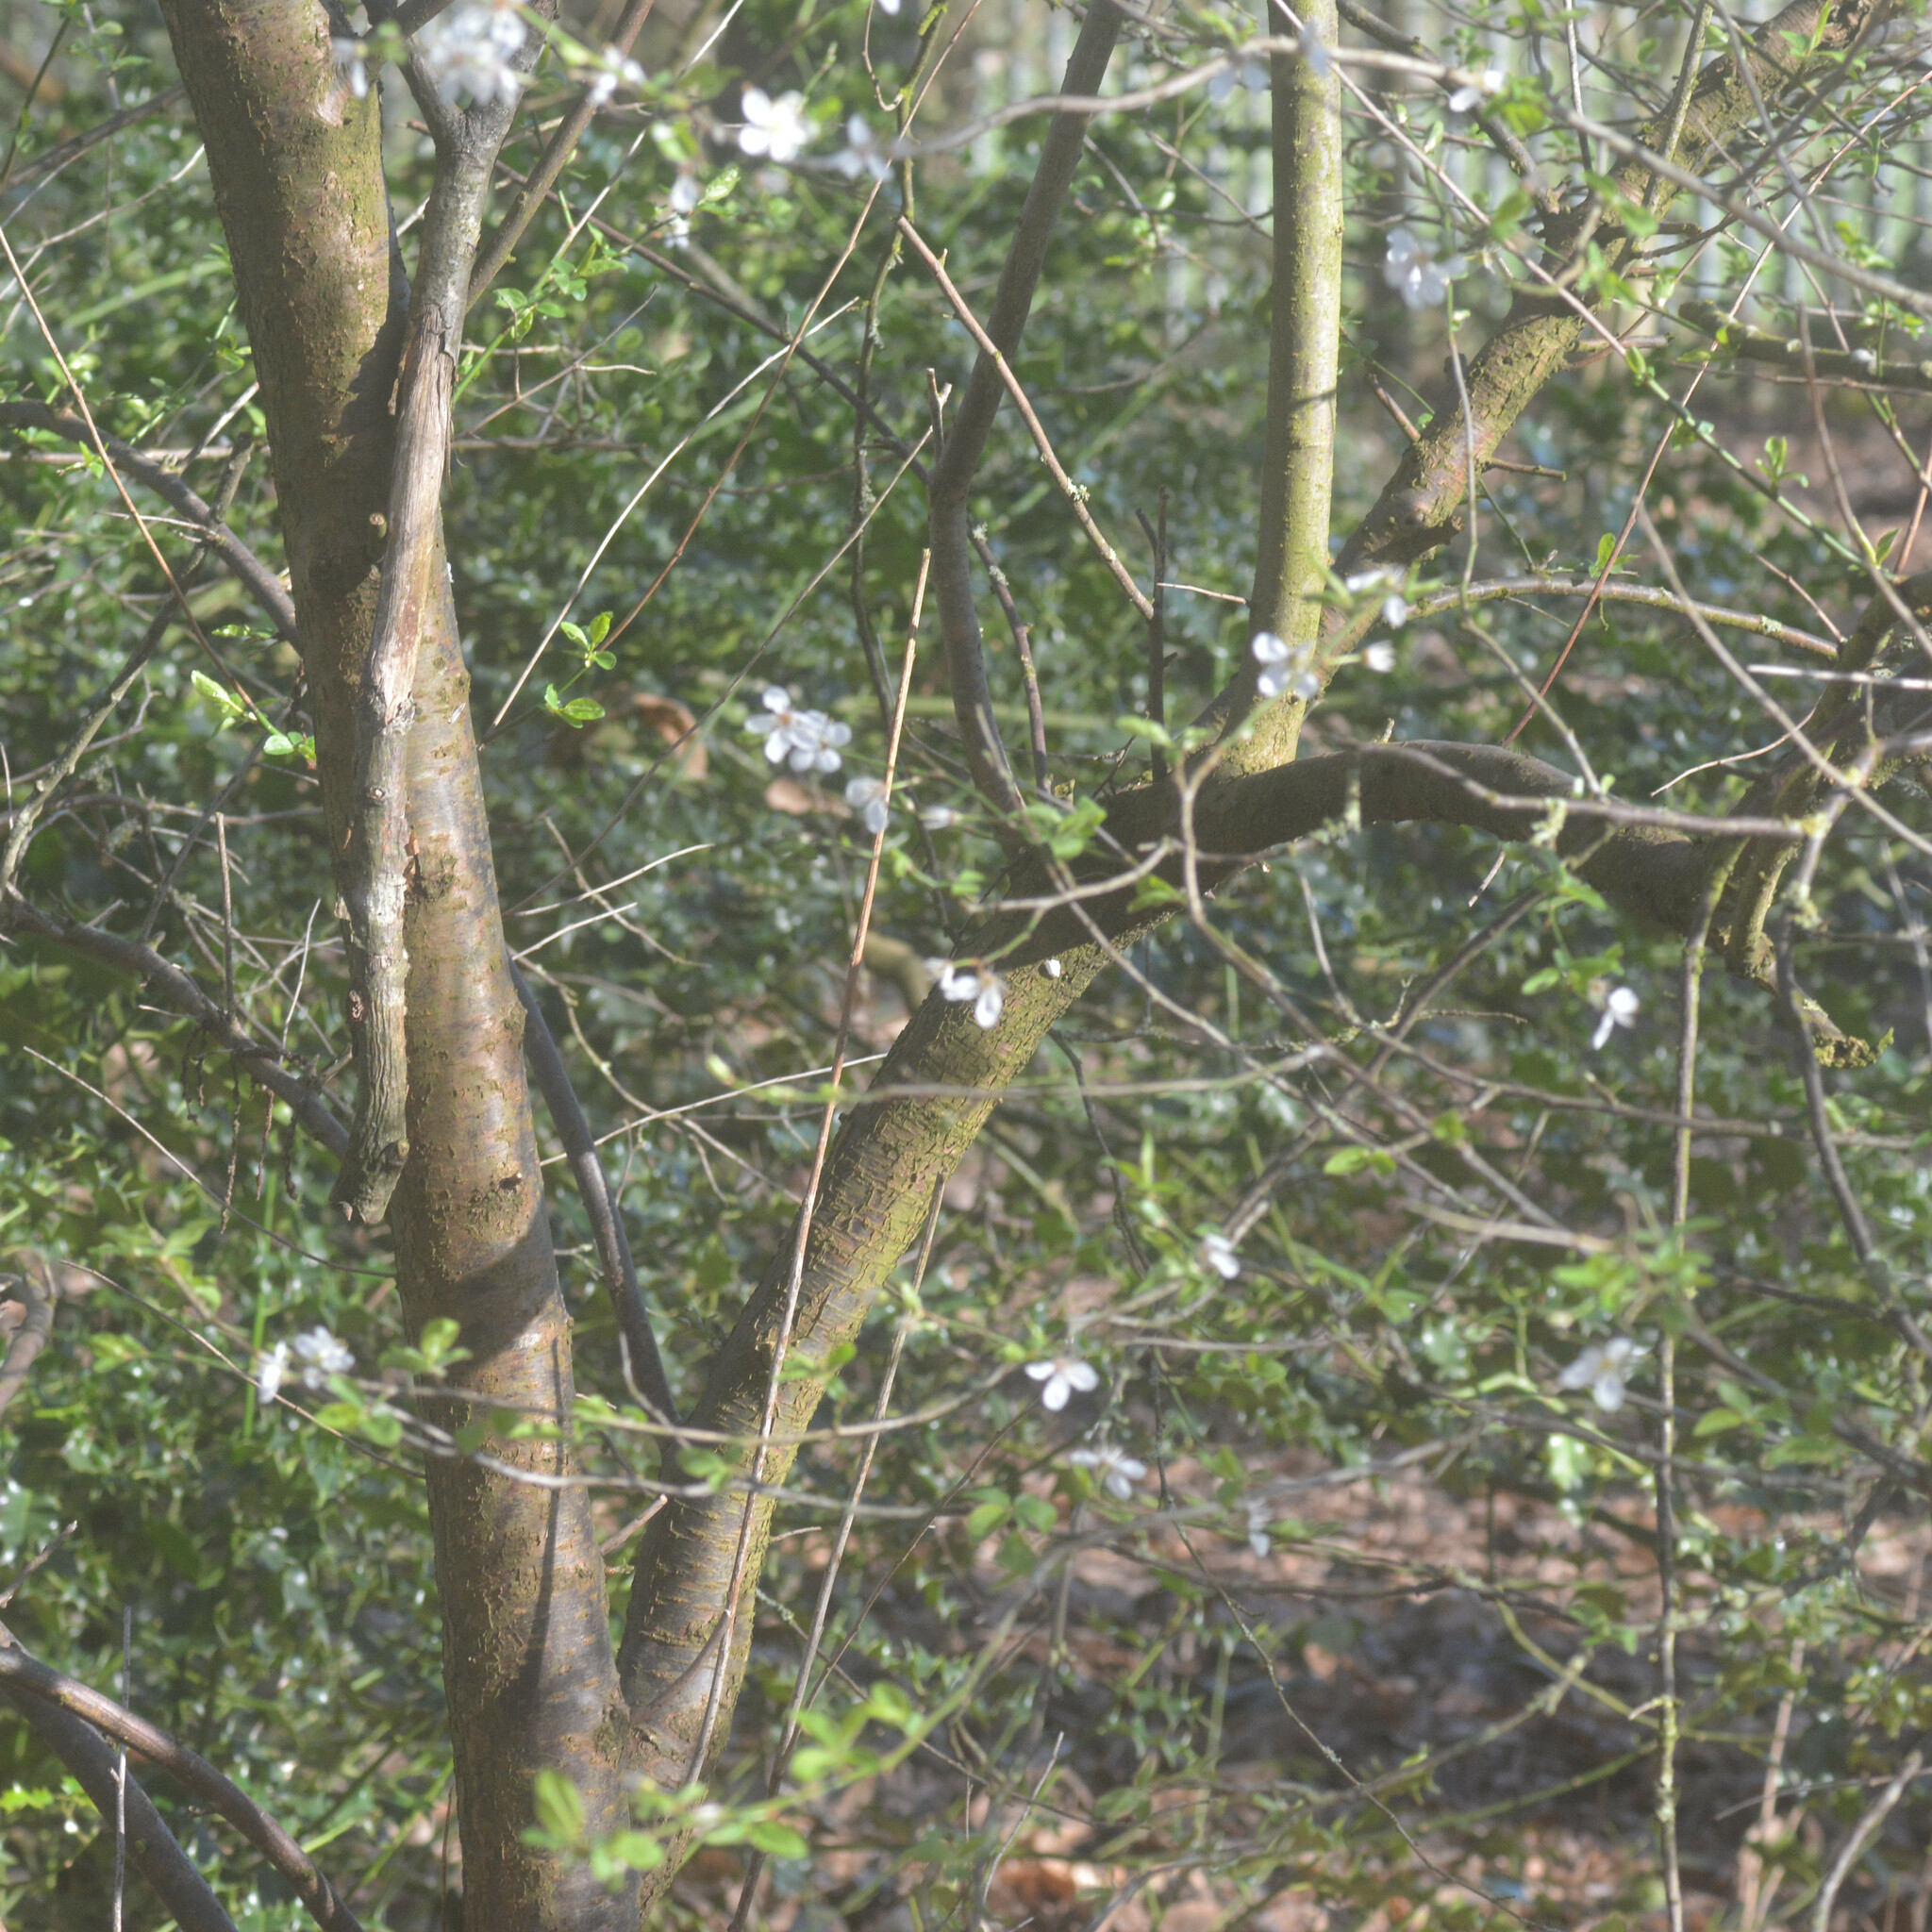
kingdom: Plantae
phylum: Tracheophyta
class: Magnoliopsida
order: Rosales
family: Rosaceae
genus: Prunus
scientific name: Prunus cerasifera
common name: Cherry plum
